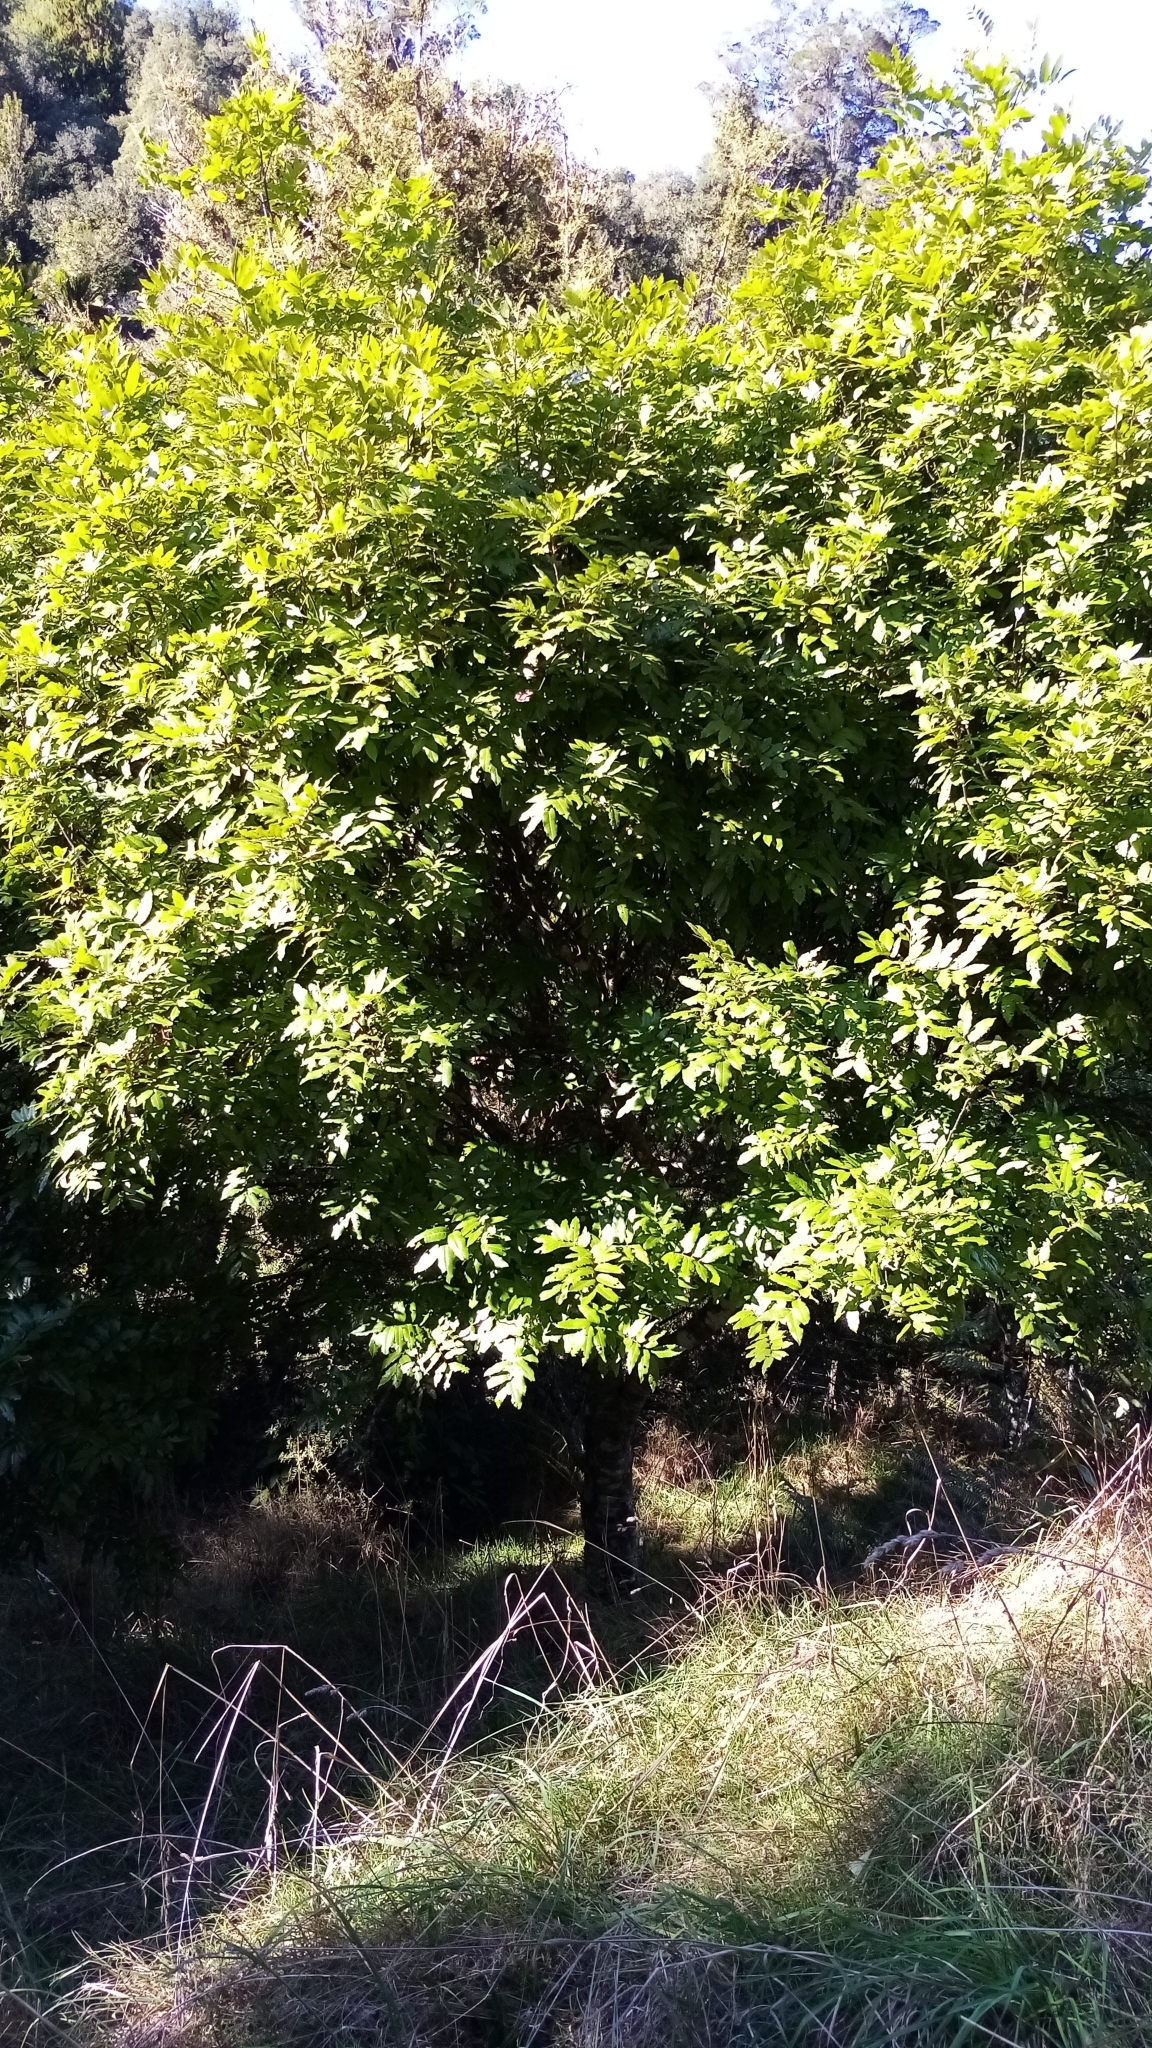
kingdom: Plantae
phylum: Tracheophyta
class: Magnoliopsida
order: Sapindales
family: Sapindaceae
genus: Alectryon
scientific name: Alectryon excelsus
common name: Three kings titoki
